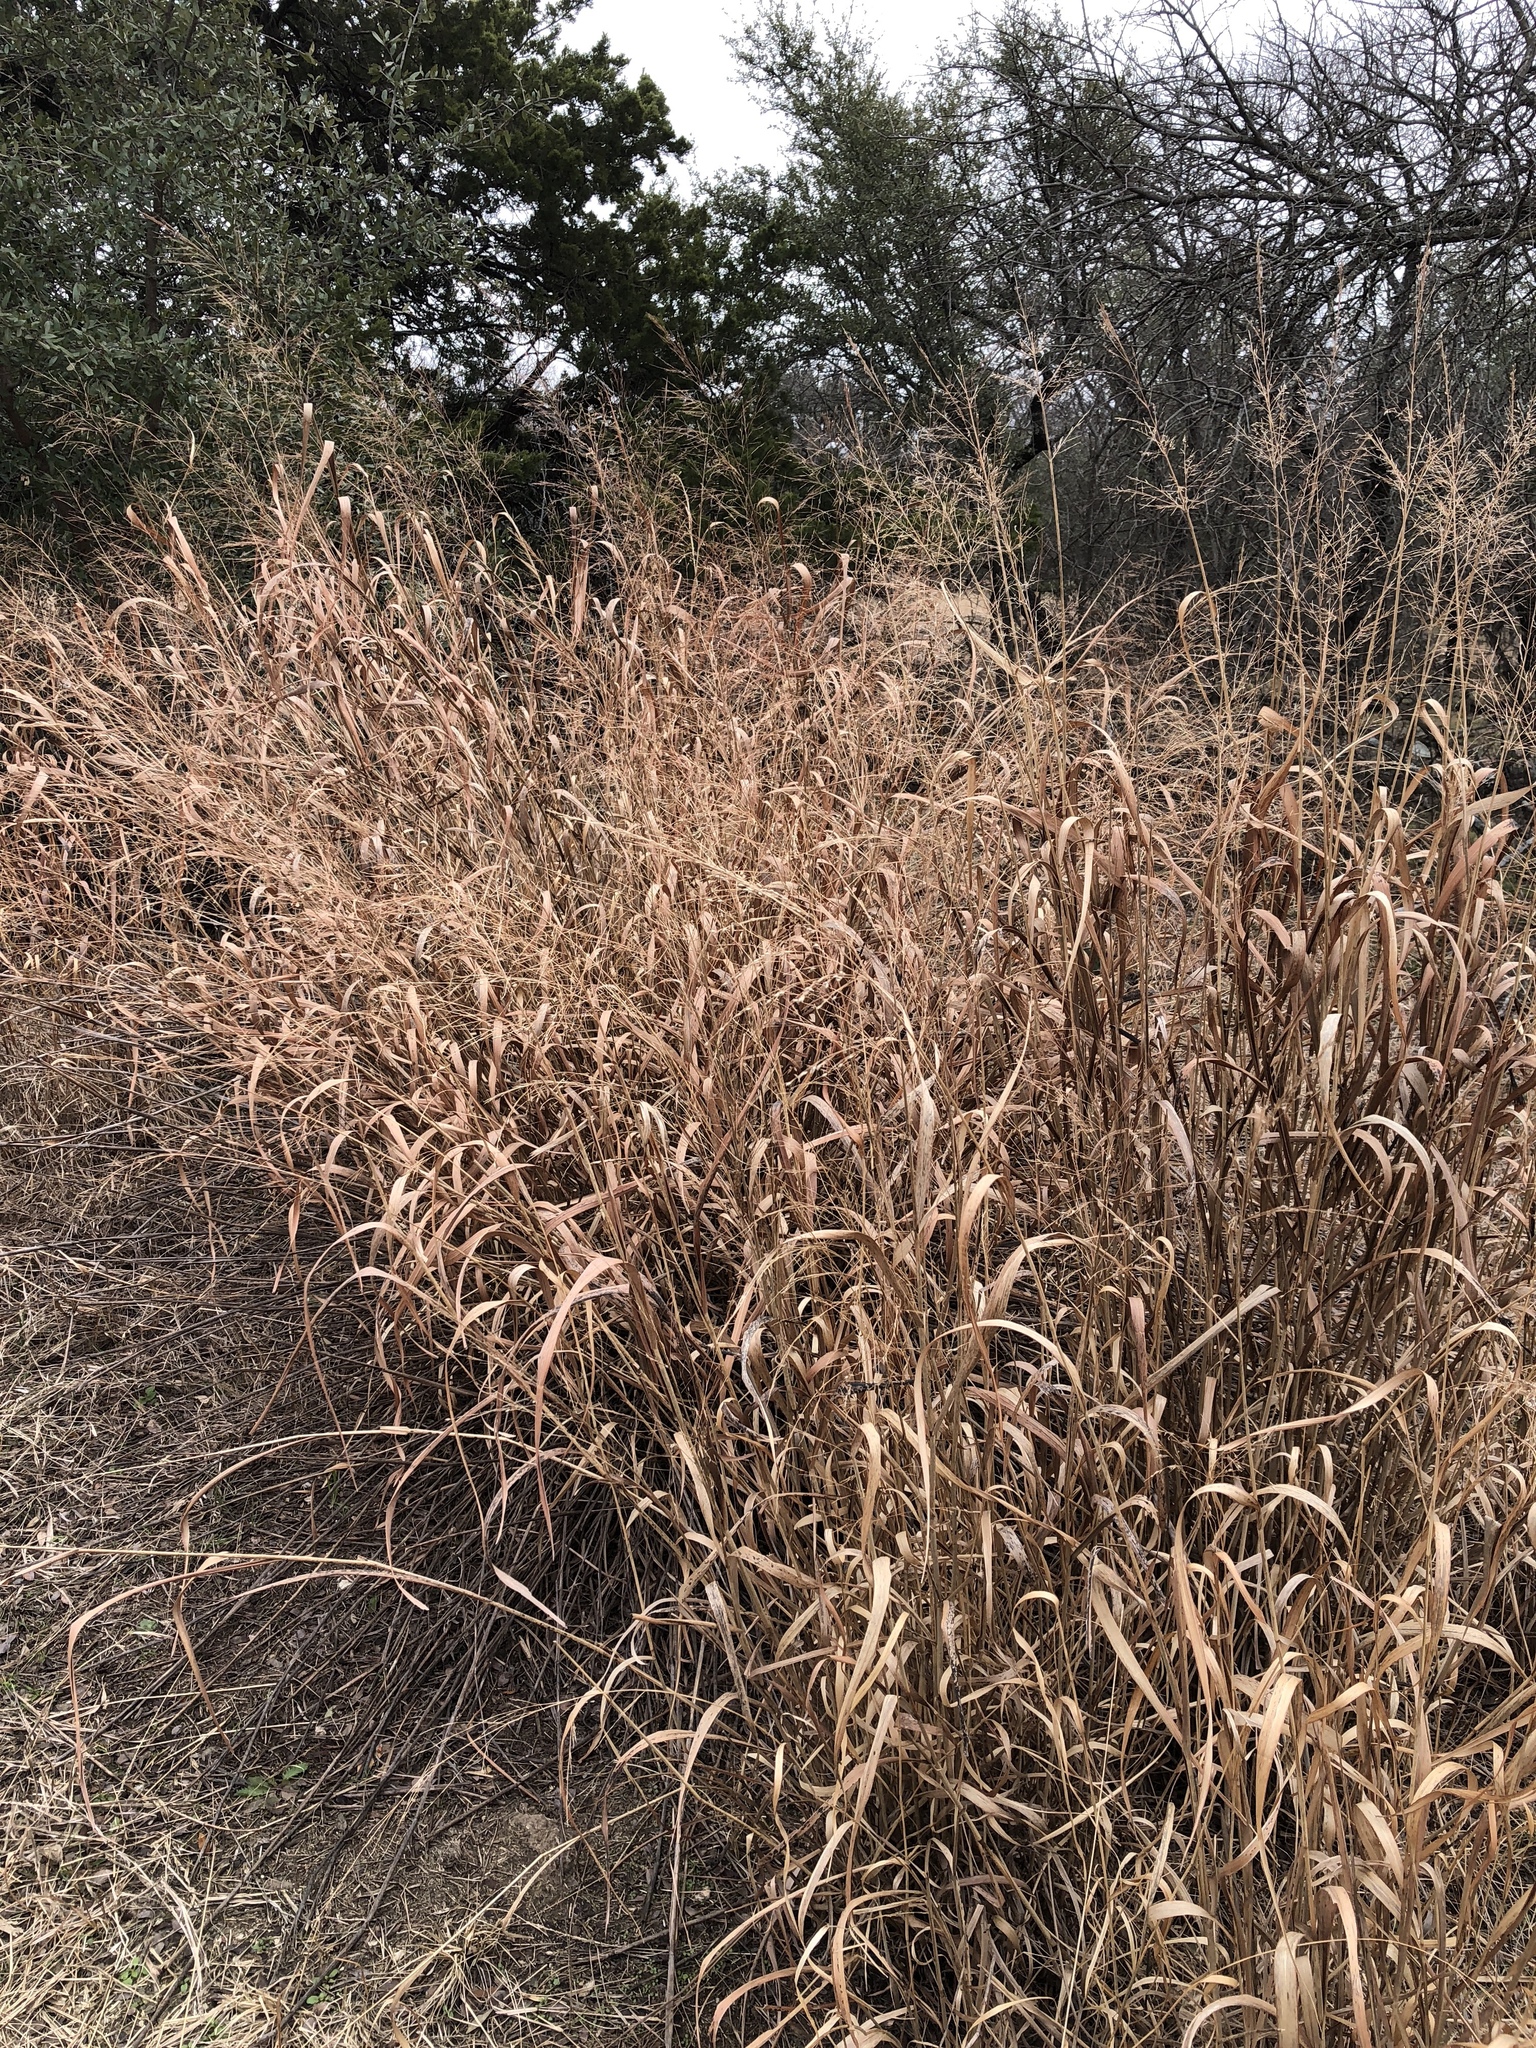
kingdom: Plantae
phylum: Tracheophyta
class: Liliopsida
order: Poales
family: Poaceae
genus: Panicum
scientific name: Panicum virgatum
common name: Switchgrass
